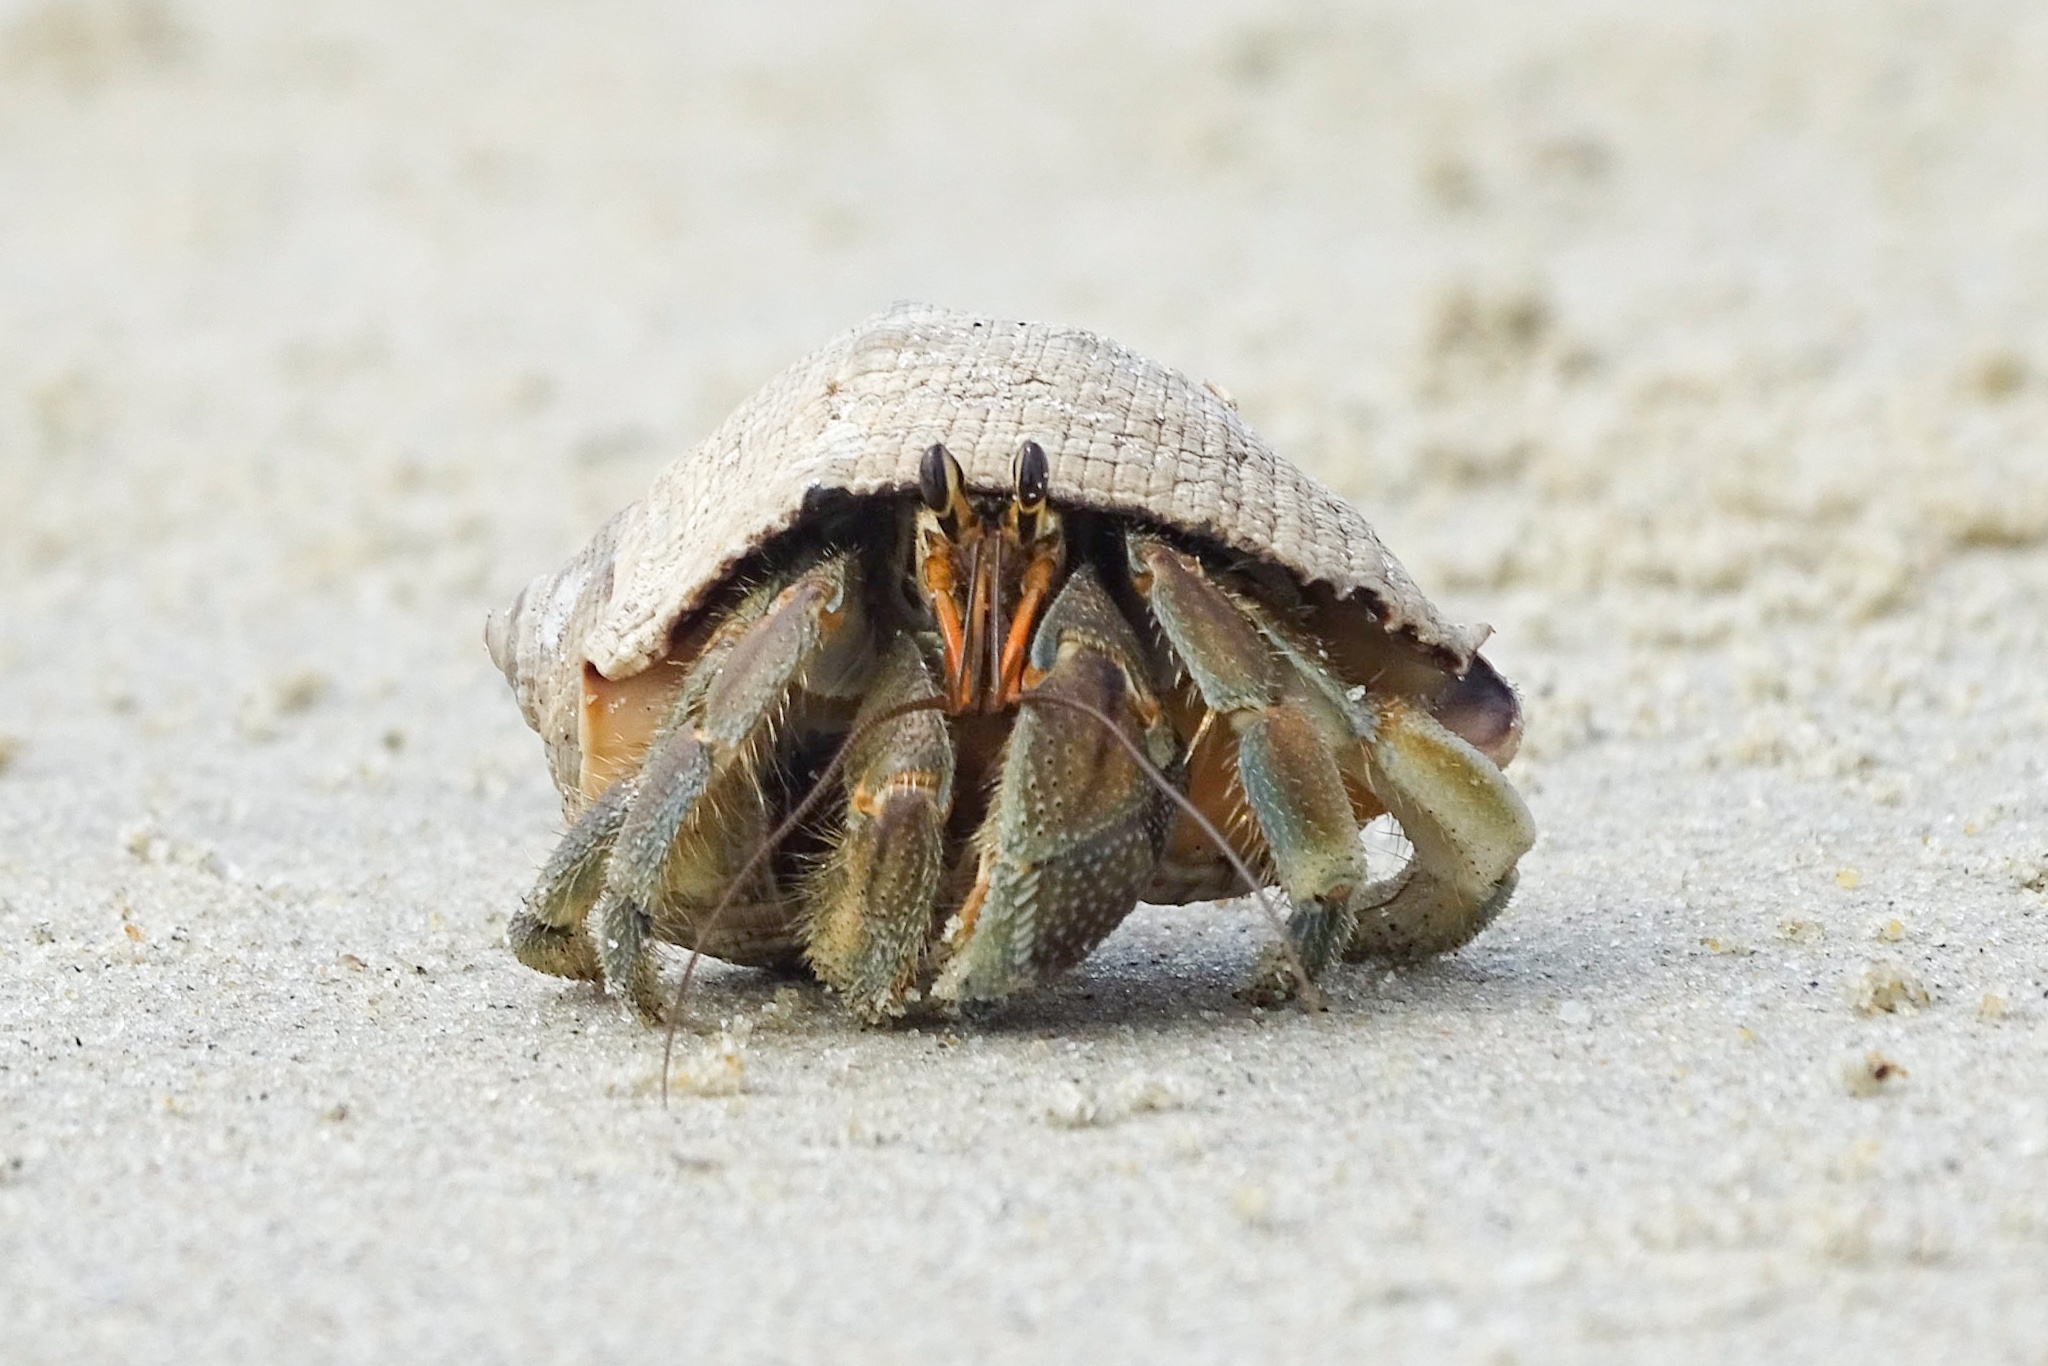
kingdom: Animalia
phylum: Arthropoda
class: Malacostraca
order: Decapoda
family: Coenobitidae
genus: Coenobita
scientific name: Coenobita rugosus
